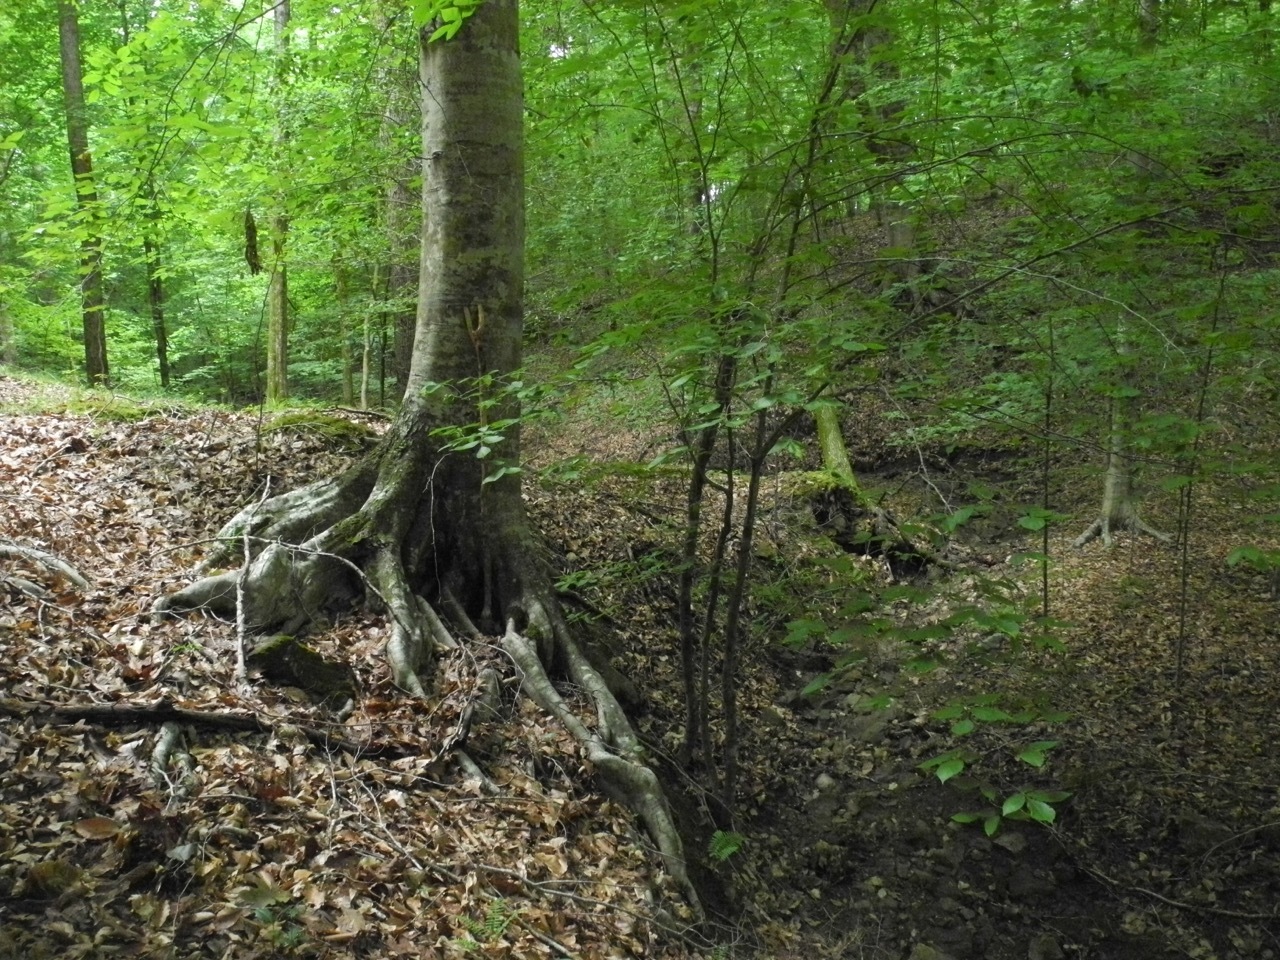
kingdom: Plantae
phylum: Tracheophyta
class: Magnoliopsida
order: Fagales
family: Fagaceae
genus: Fagus
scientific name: Fagus grandifolia
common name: American beech
